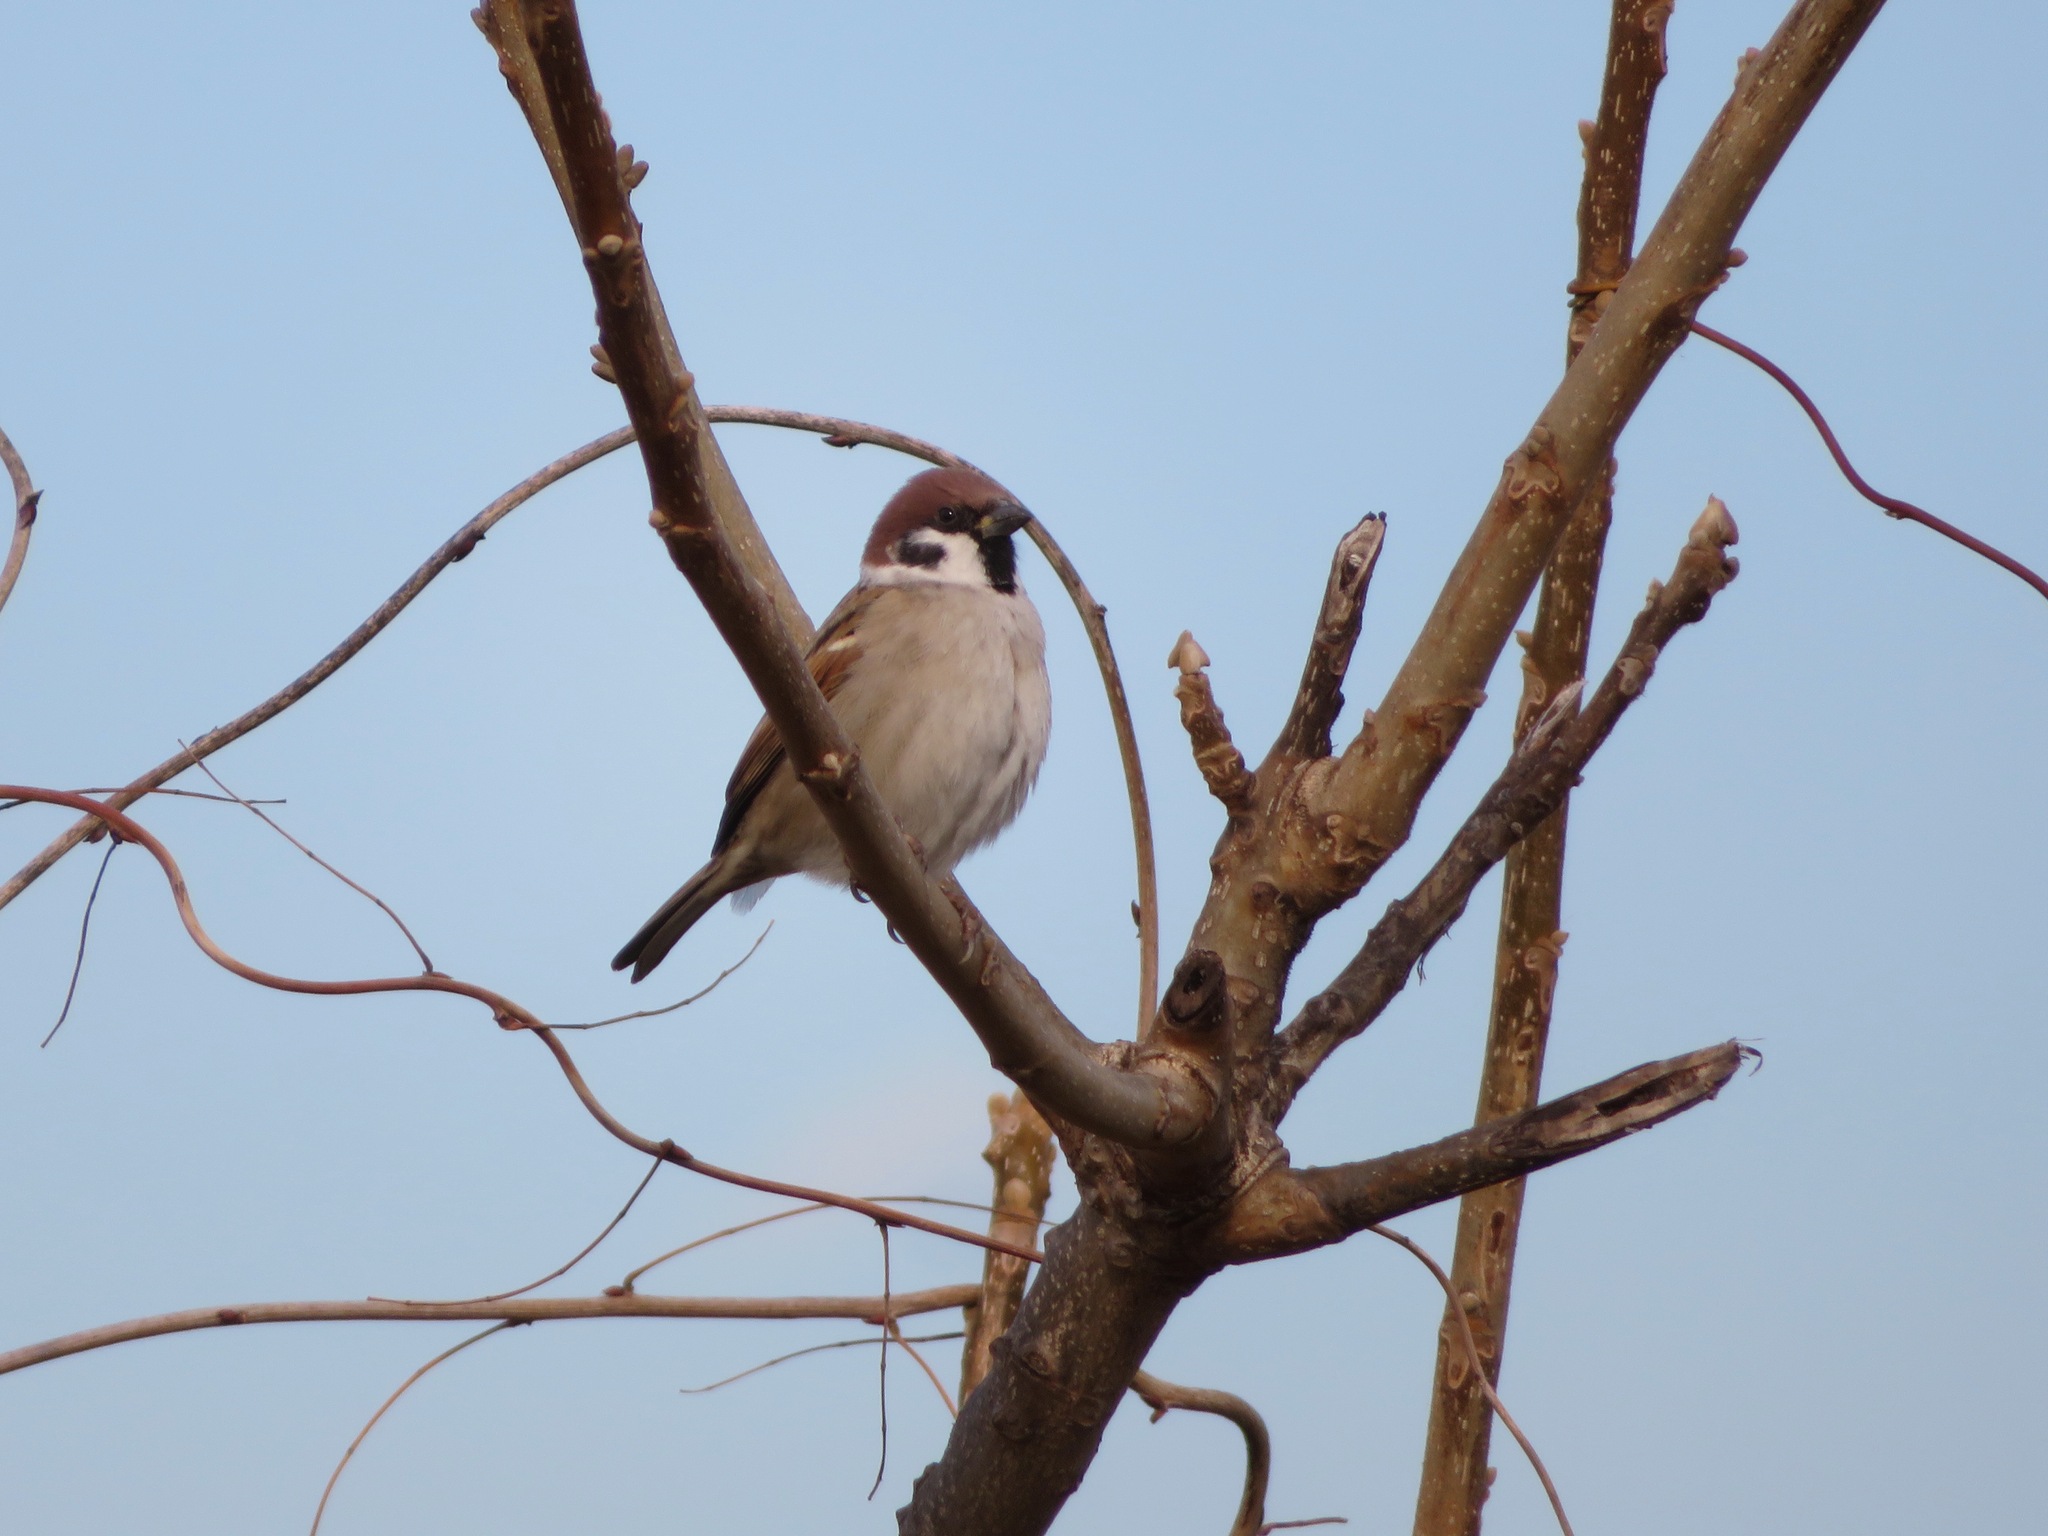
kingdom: Animalia
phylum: Chordata
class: Aves
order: Passeriformes
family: Passeridae
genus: Passer
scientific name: Passer montanus
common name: Eurasian tree sparrow
